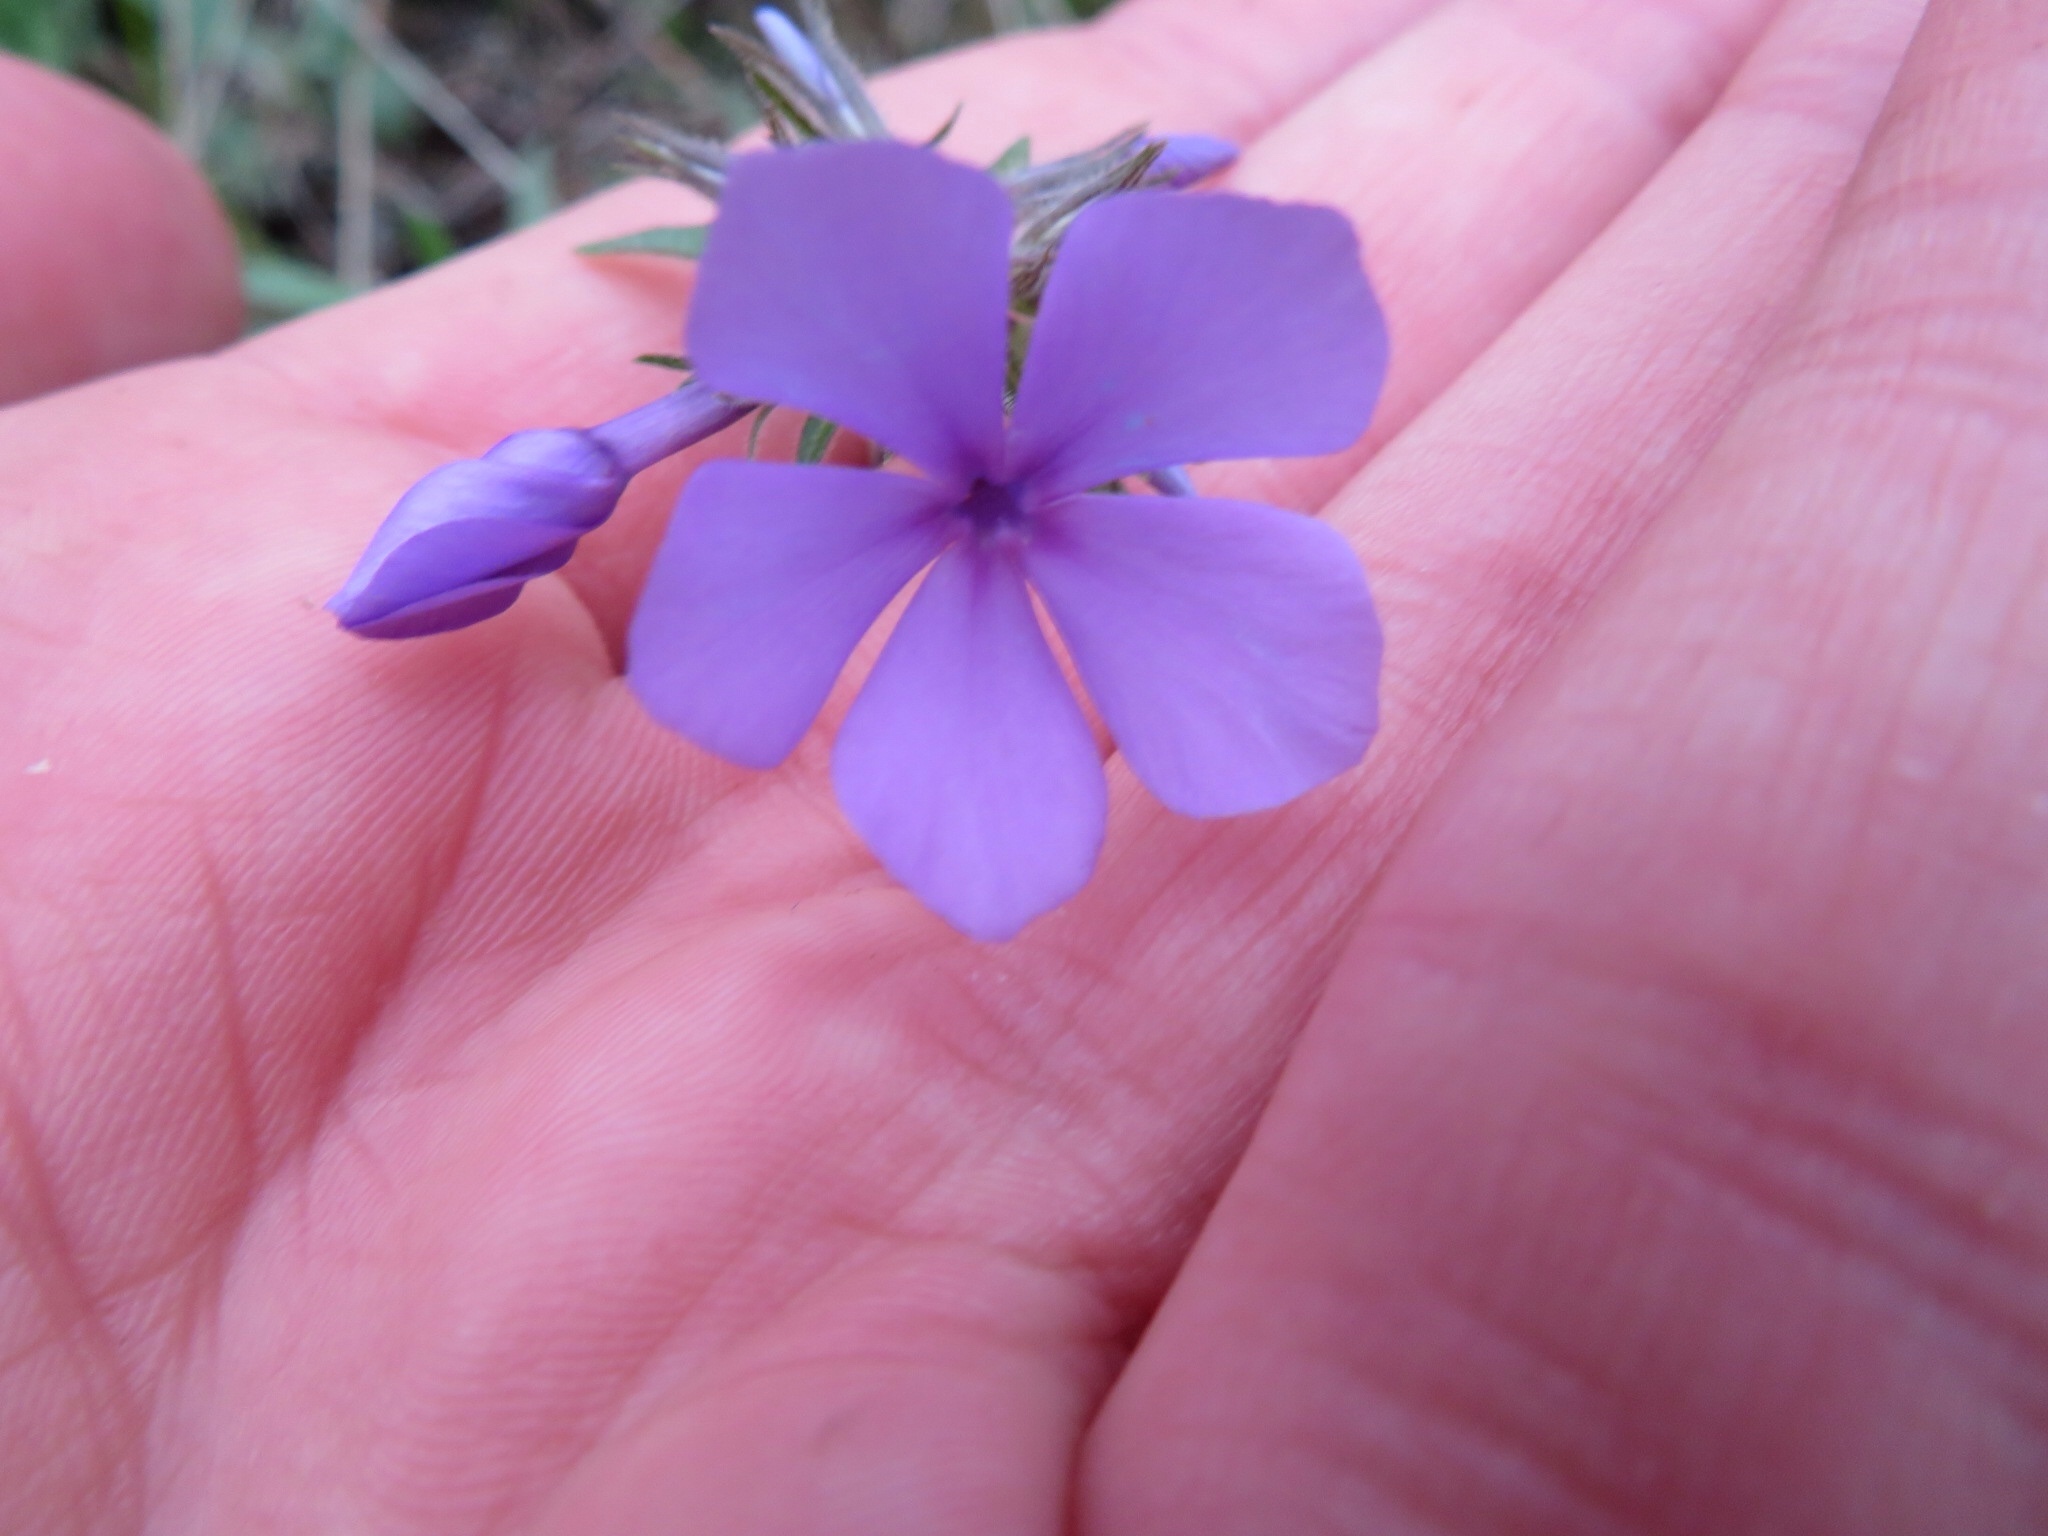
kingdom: Plantae
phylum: Tracheophyta
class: Magnoliopsida
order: Ericales
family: Polemoniaceae
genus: Phlox
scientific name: Phlox divaricata
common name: Blue phlox
